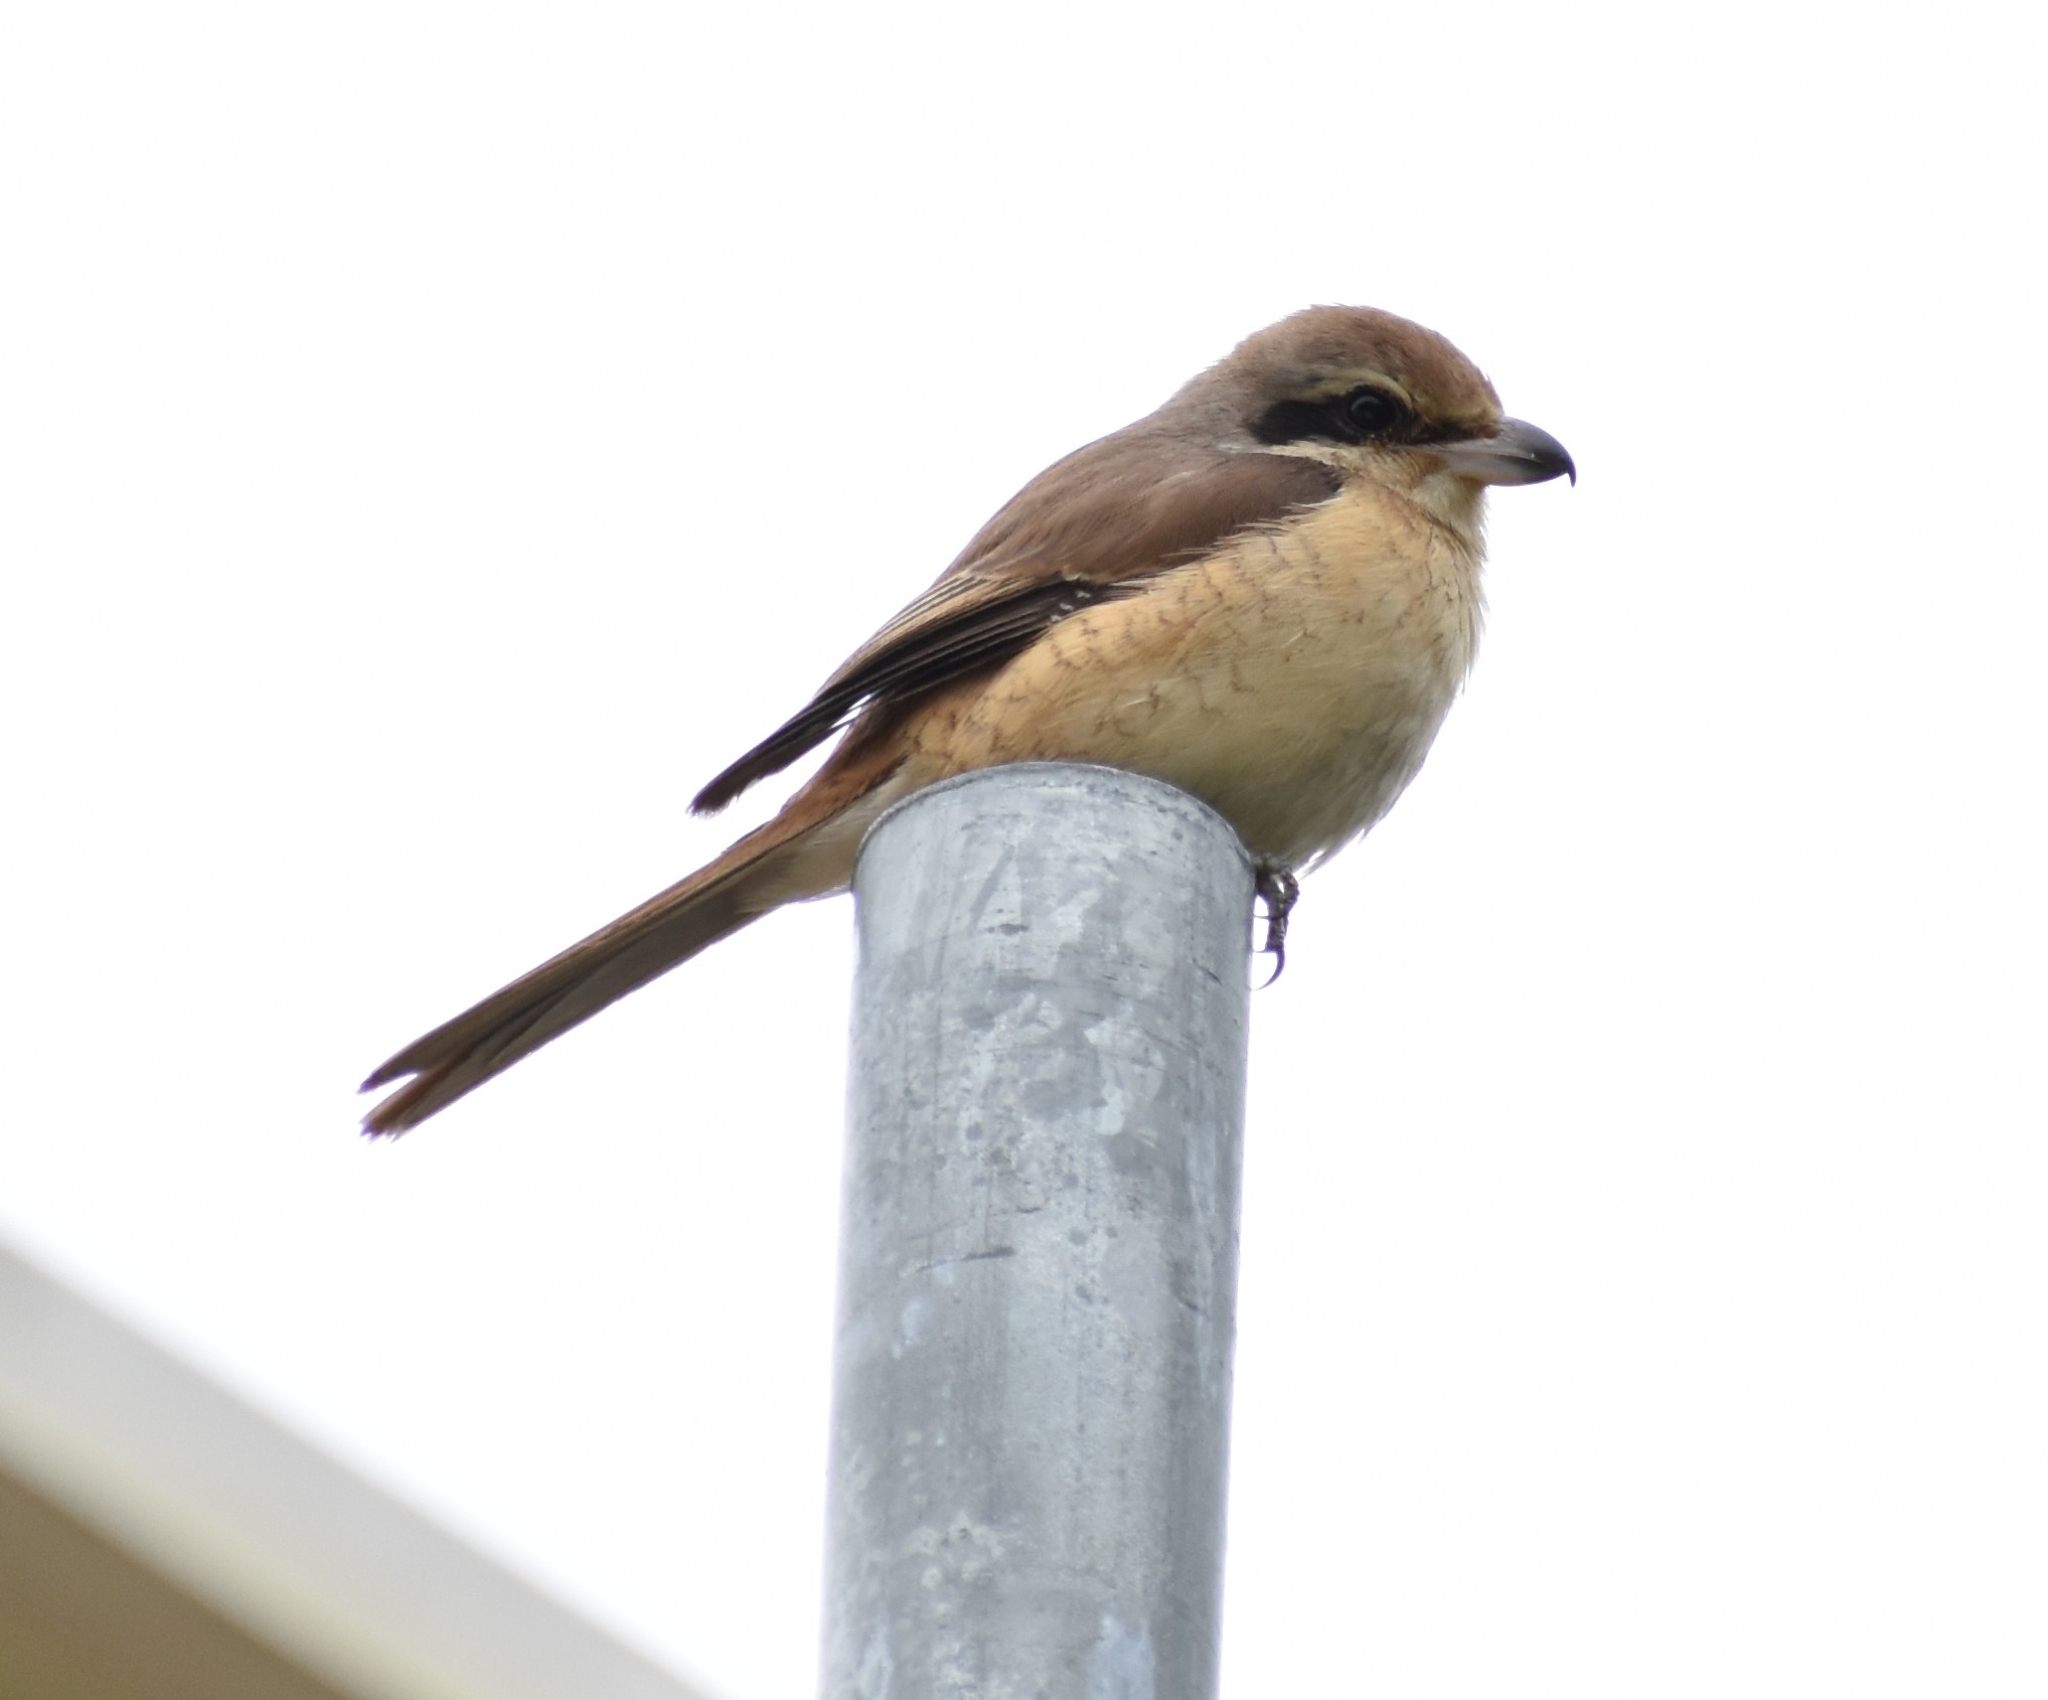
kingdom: Animalia
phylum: Chordata
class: Aves
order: Passeriformes
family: Laniidae
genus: Lanius
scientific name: Lanius cristatus
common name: Brown shrike
